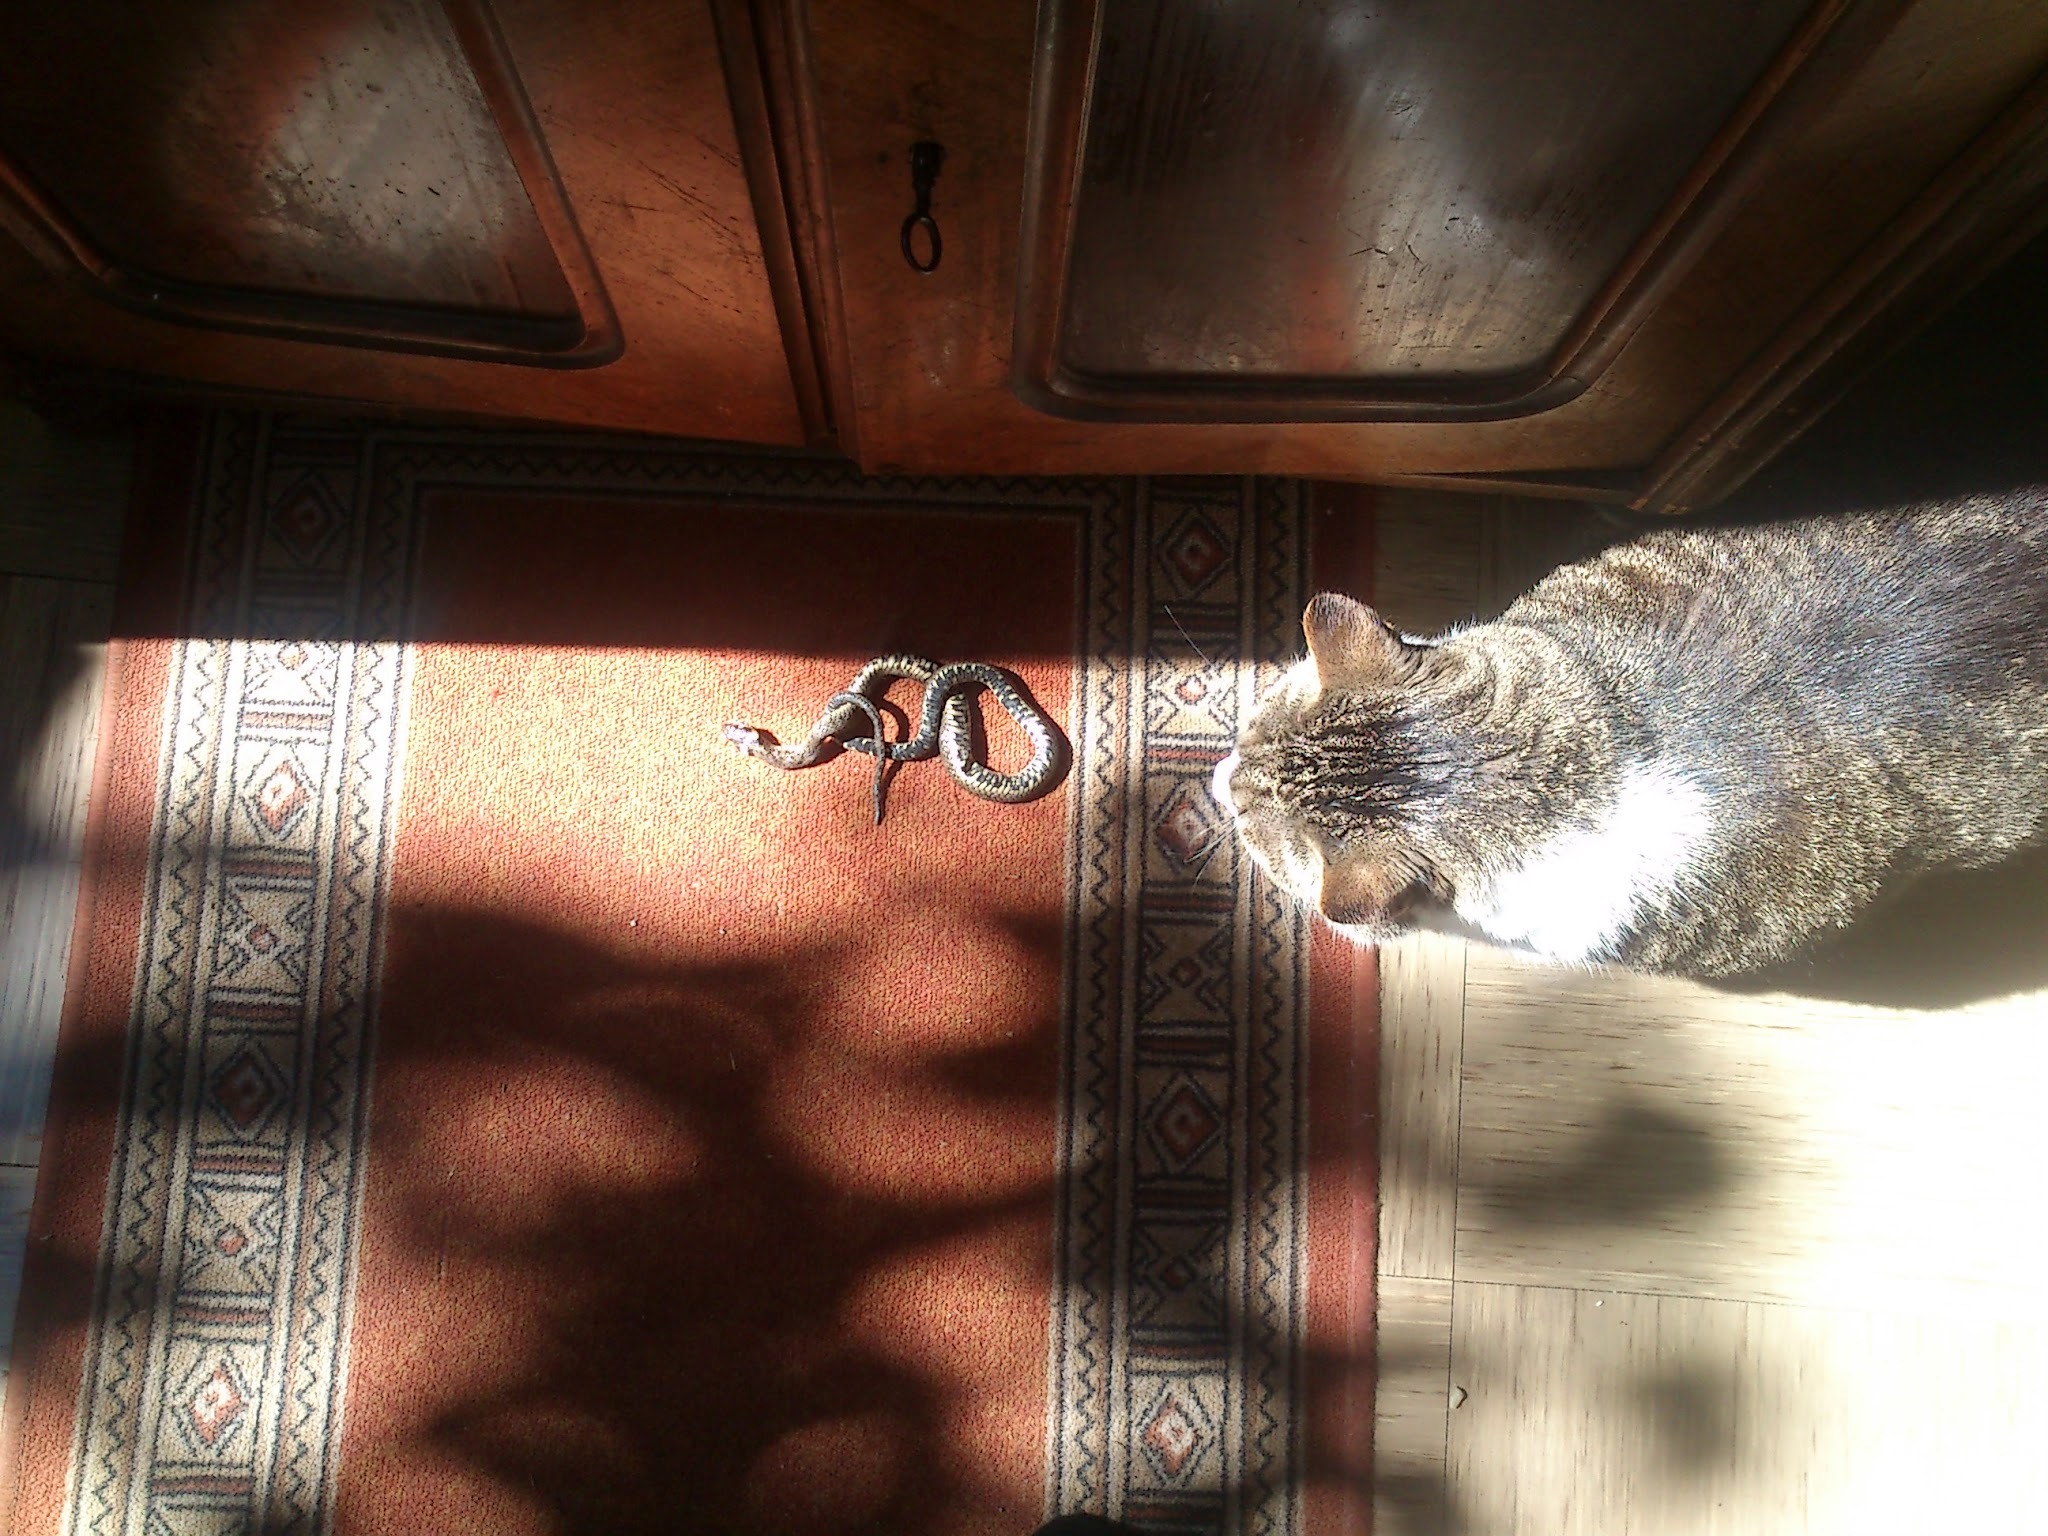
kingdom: Animalia
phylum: Chordata
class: Squamata
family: Colubridae
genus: Natrix
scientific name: Natrix natrix
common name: Grass snake
